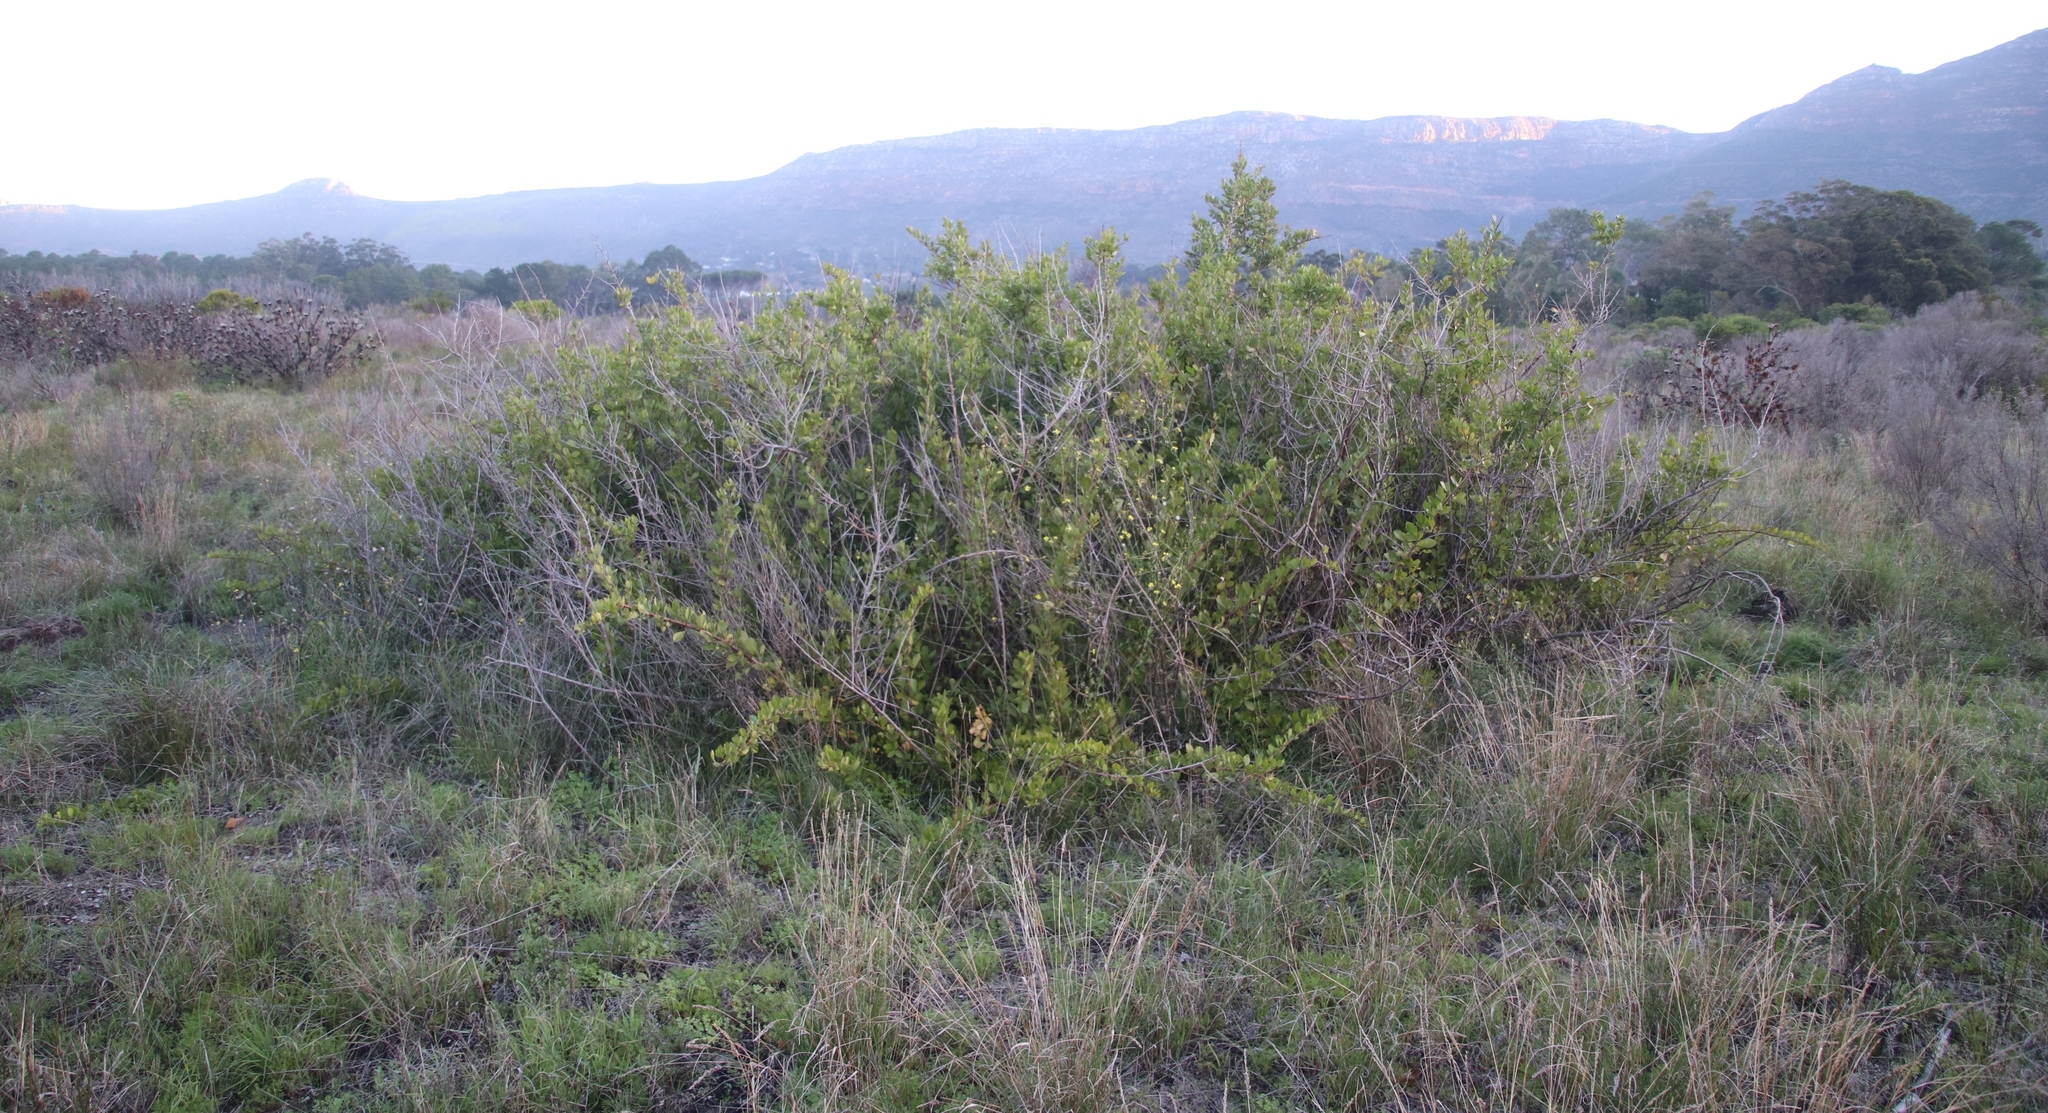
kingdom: Plantae
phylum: Tracheophyta
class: Magnoliopsida
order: Sapindales
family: Anacardiaceae
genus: Searsia
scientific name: Searsia laevigata
